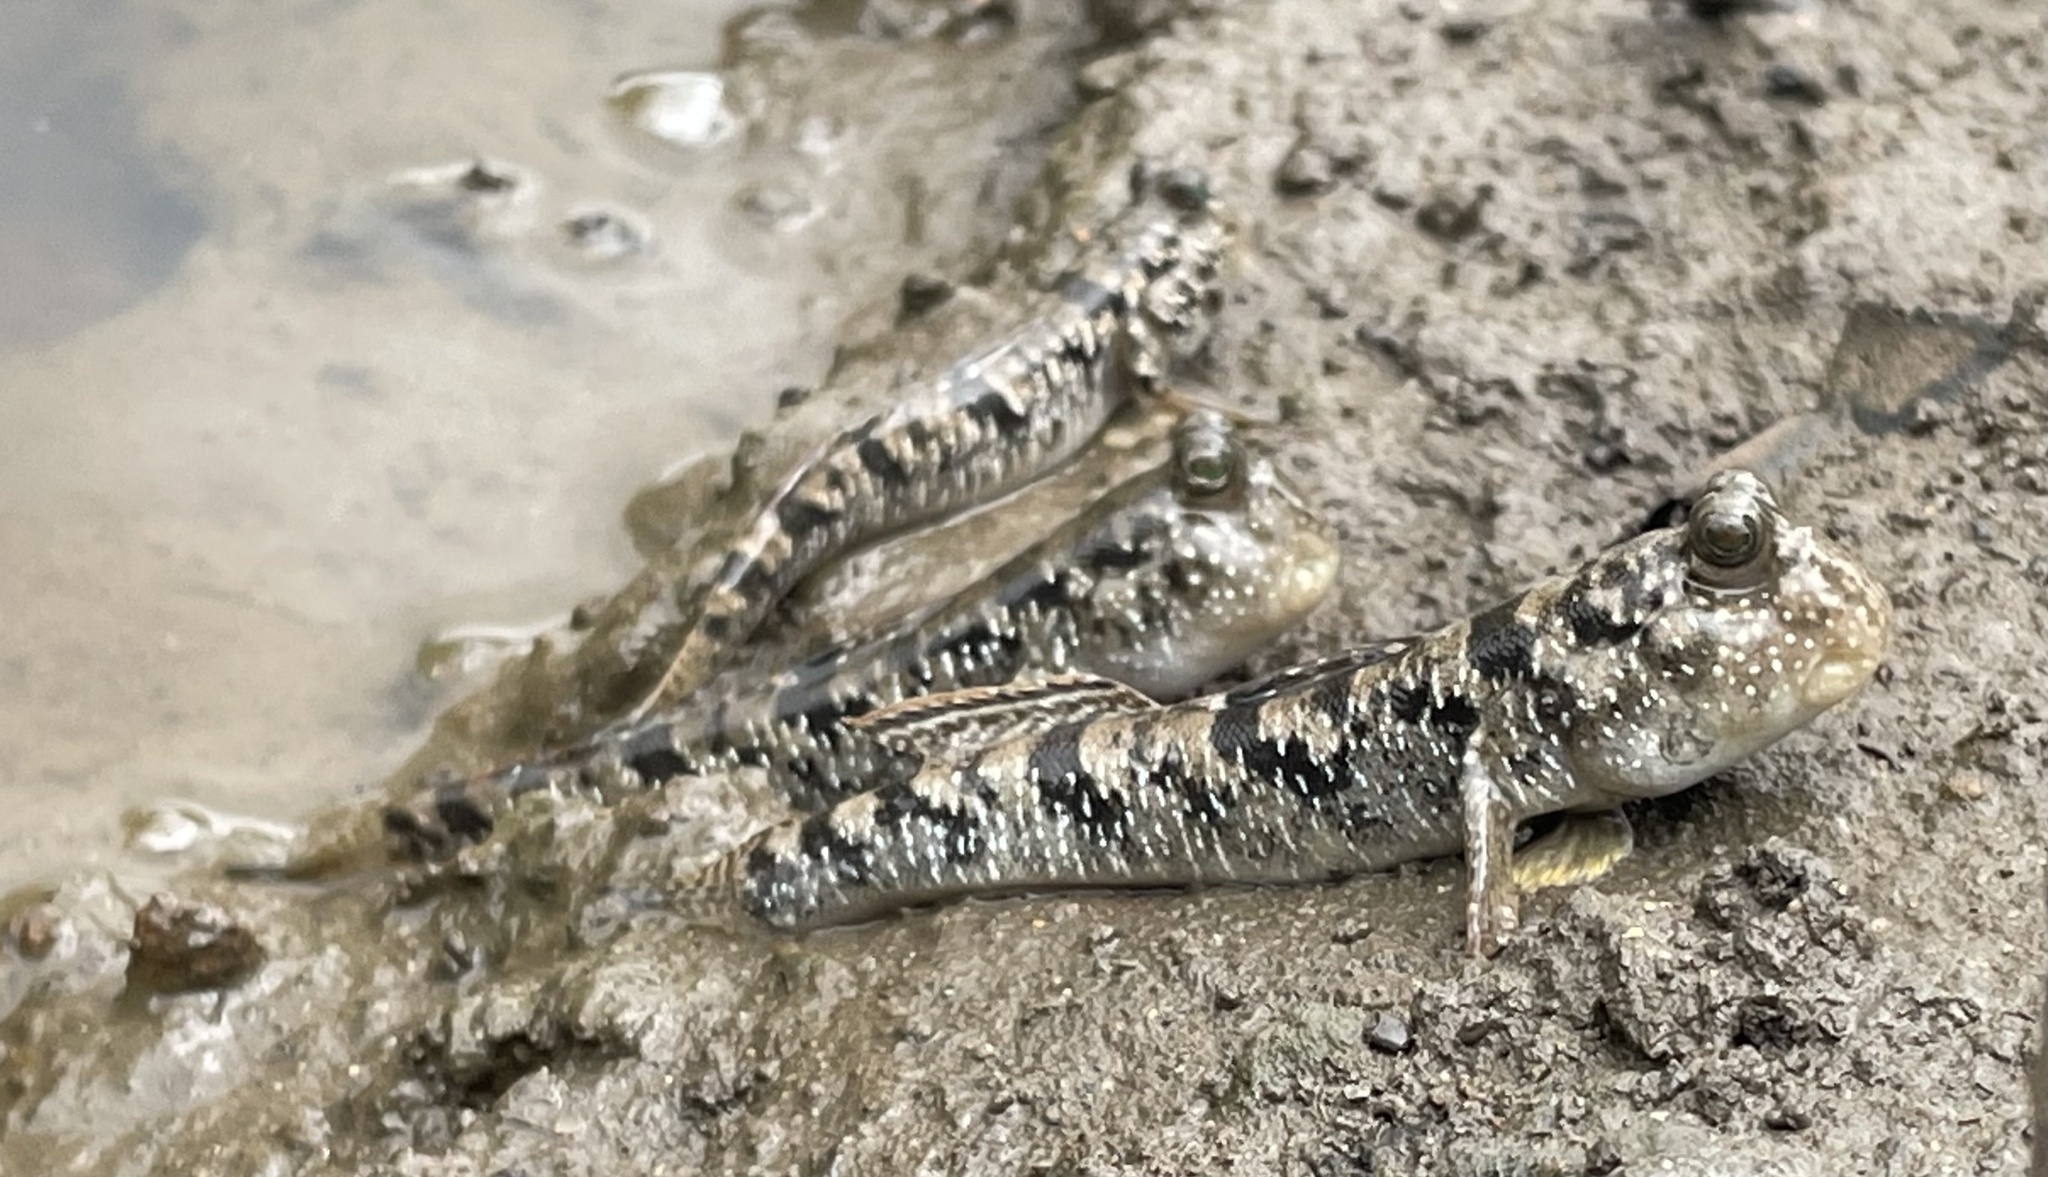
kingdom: Animalia
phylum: Chordata
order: Perciformes
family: Gobiidae
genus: Periophthalmus
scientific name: Periophthalmus argentilineatus
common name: Barred mudskipper
